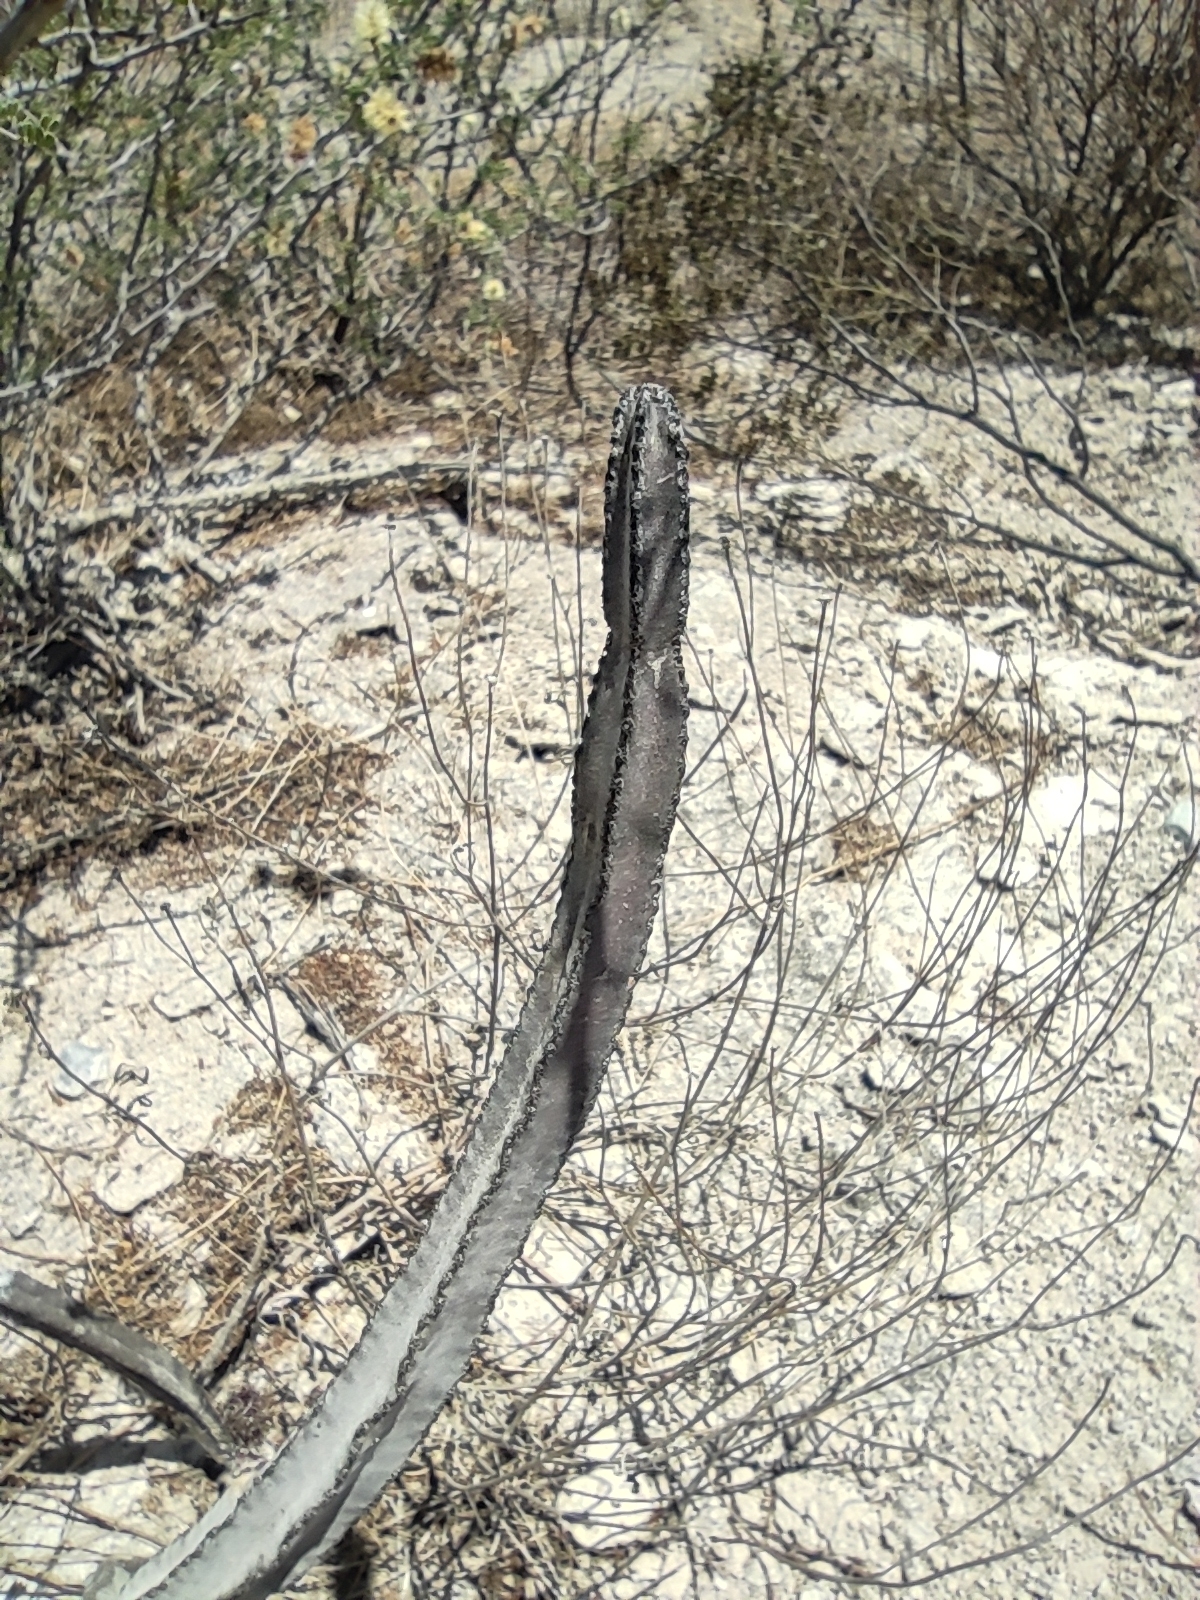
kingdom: Plantae
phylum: Tracheophyta
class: Magnoliopsida
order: Caryophyllales
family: Cactaceae
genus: Peniocereus
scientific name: Peniocereus greggii
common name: Desert night-blooming cereus
